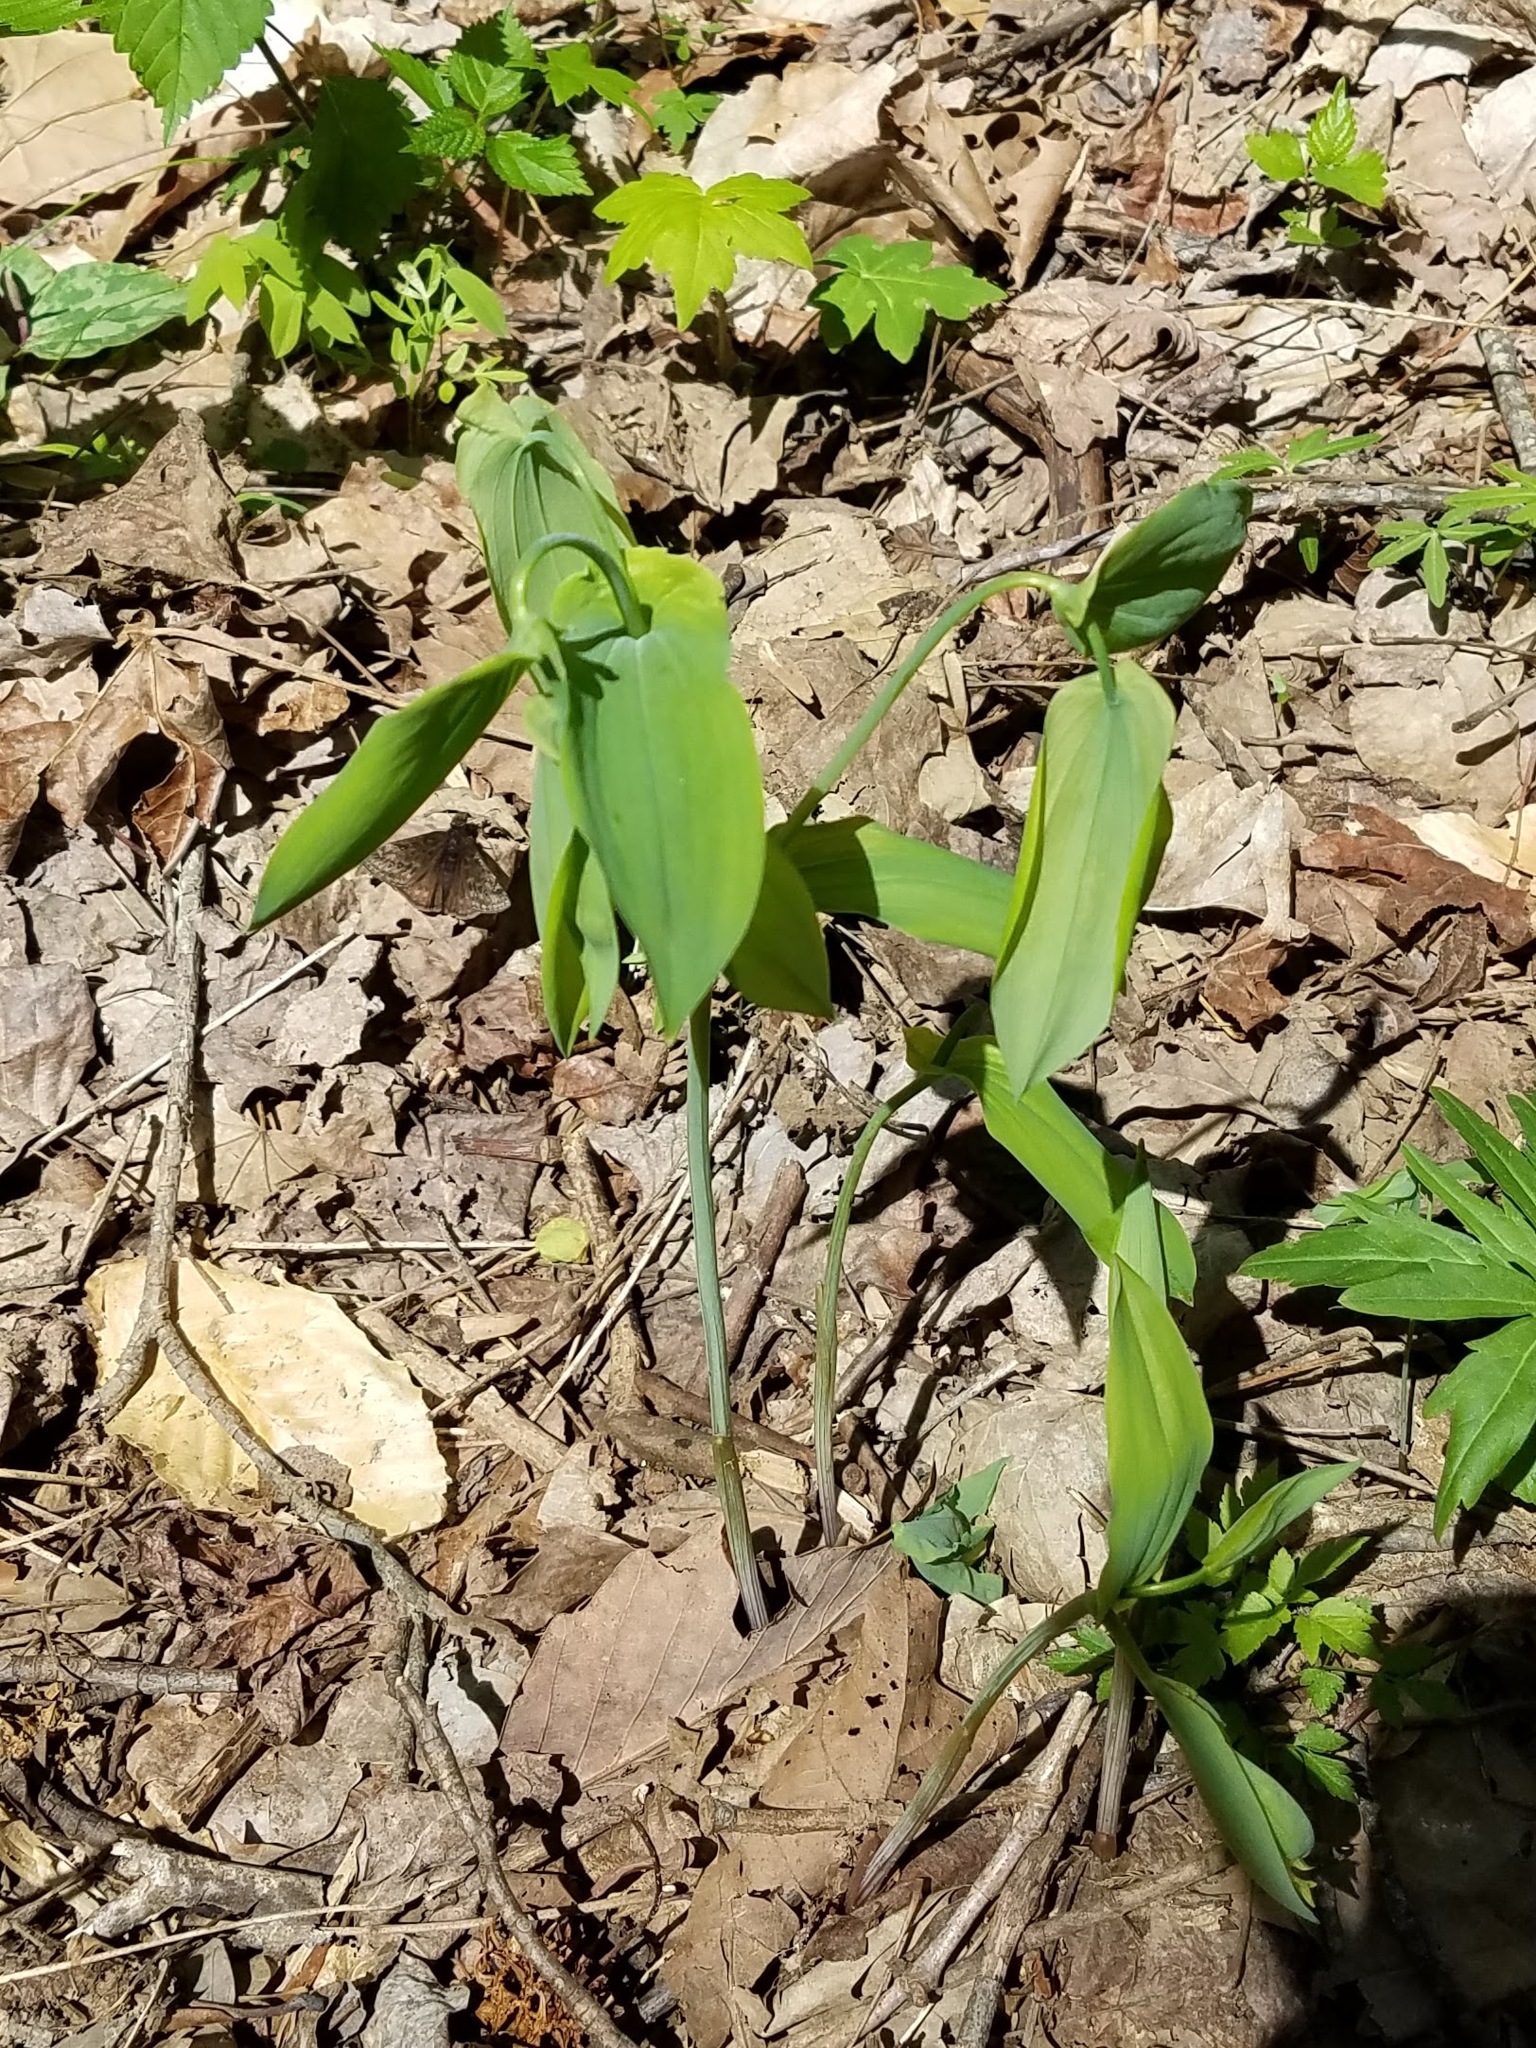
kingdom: Plantae
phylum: Tracheophyta
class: Liliopsida
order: Liliales
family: Colchicaceae
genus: Uvularia
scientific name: Uvularia grandiflora
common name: Bellwort
